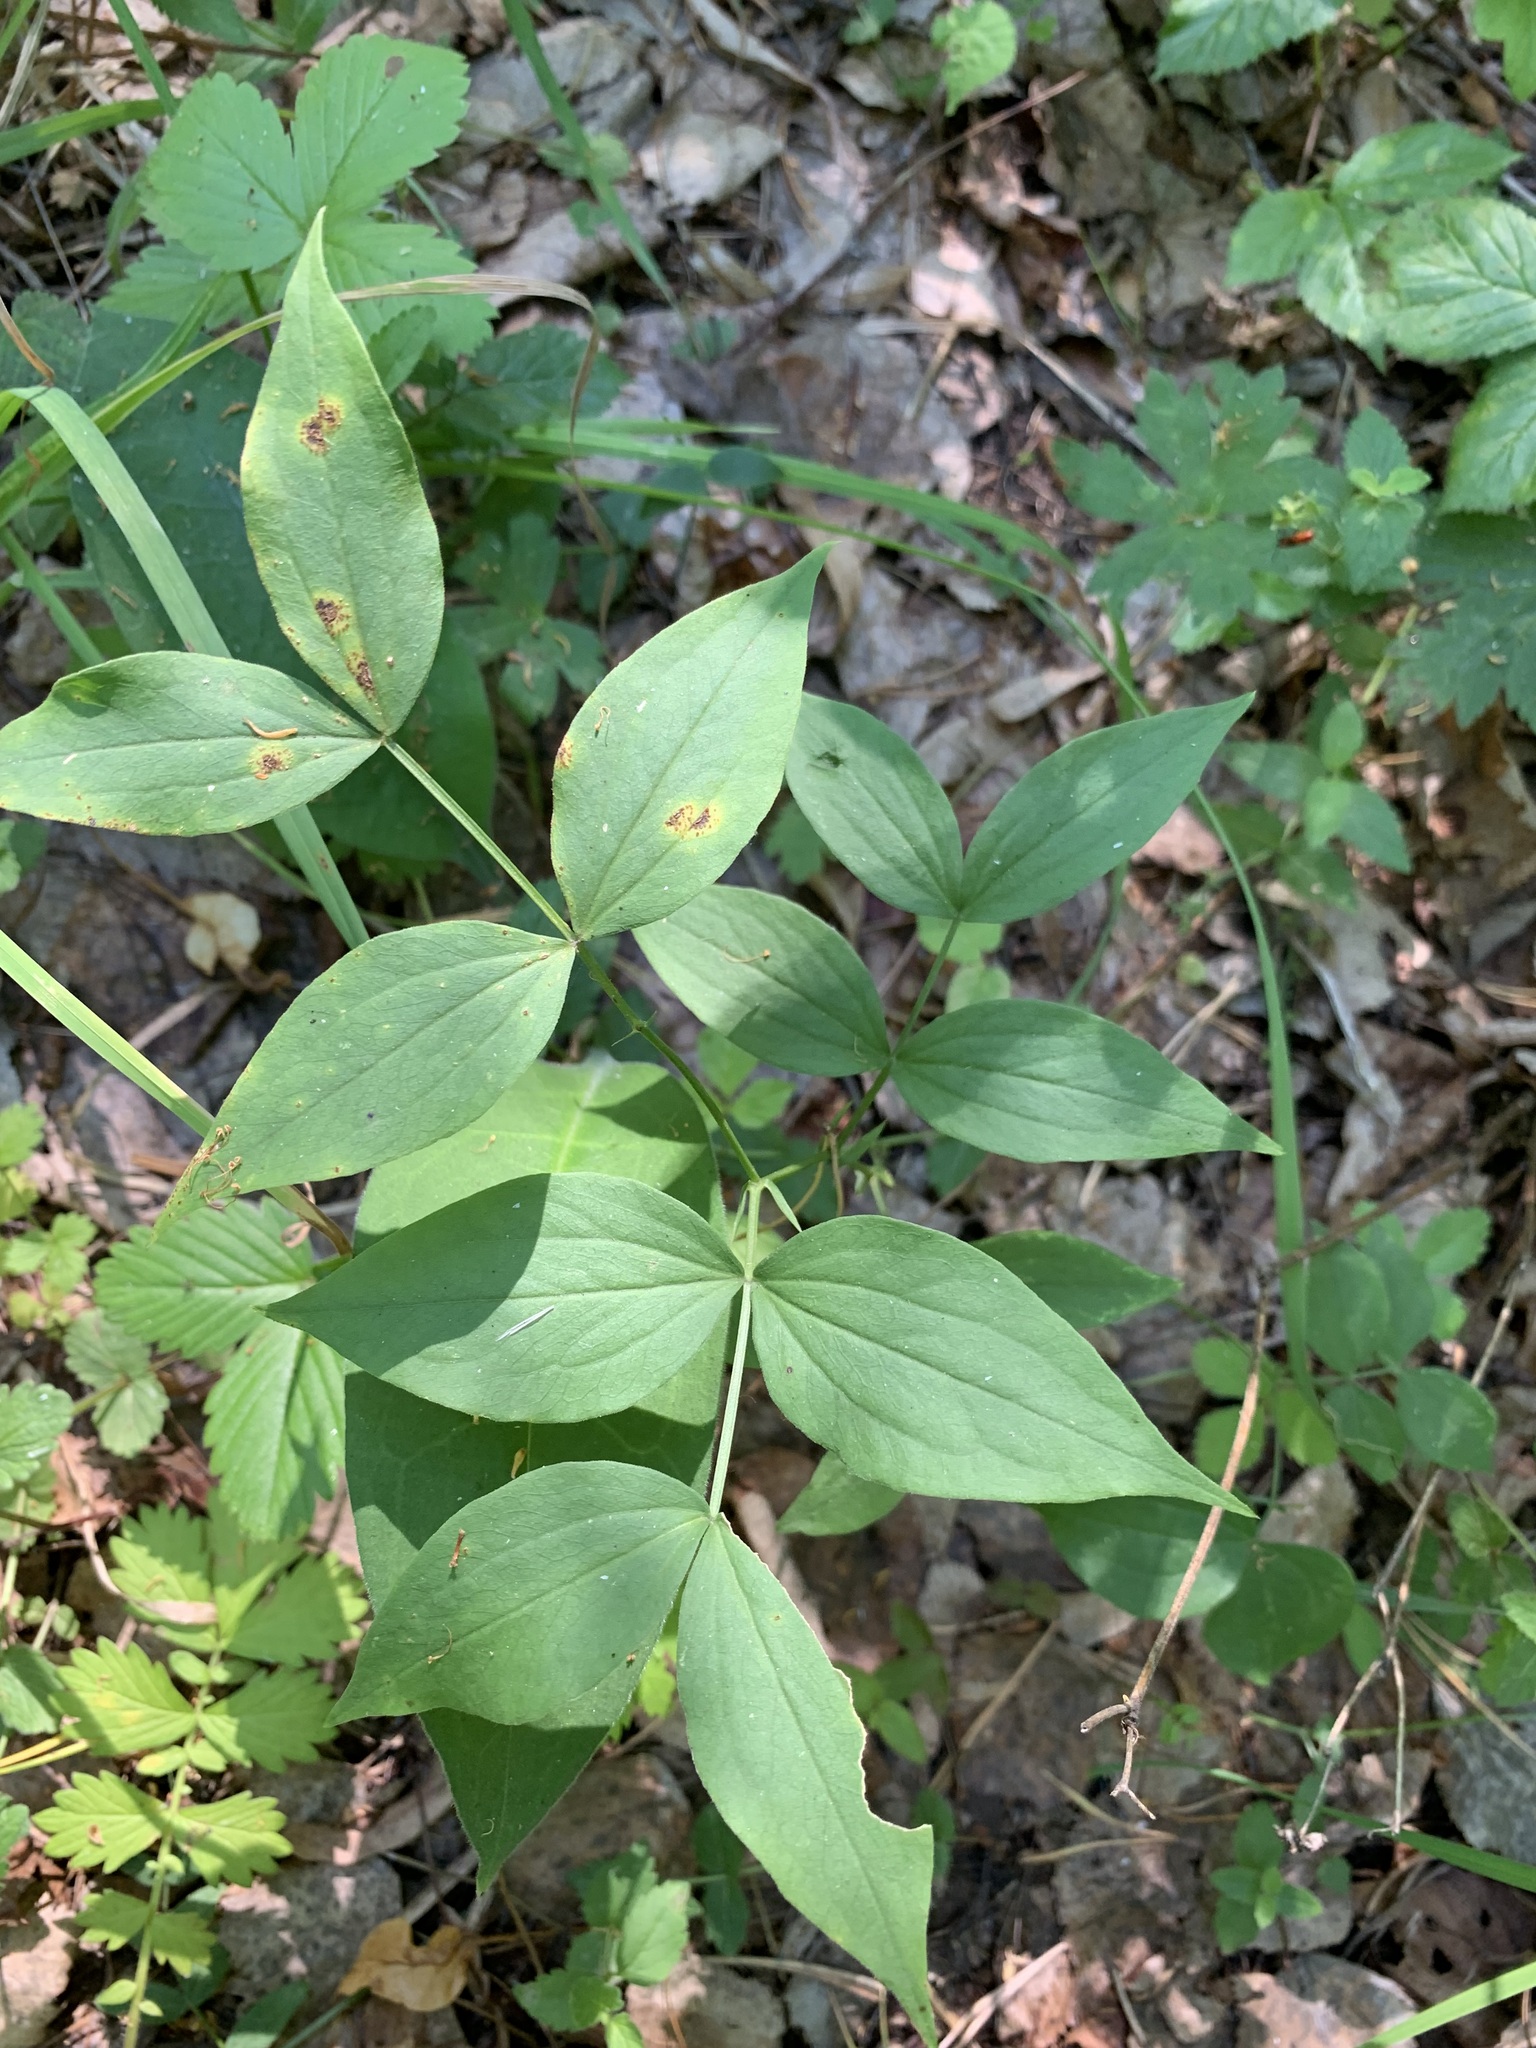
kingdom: Plantae
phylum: Tracheophyta
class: Magnoliopsida
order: Fabales
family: Fabaceae
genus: Lathyrus
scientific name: Lathyrus vernus
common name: Spring pea
